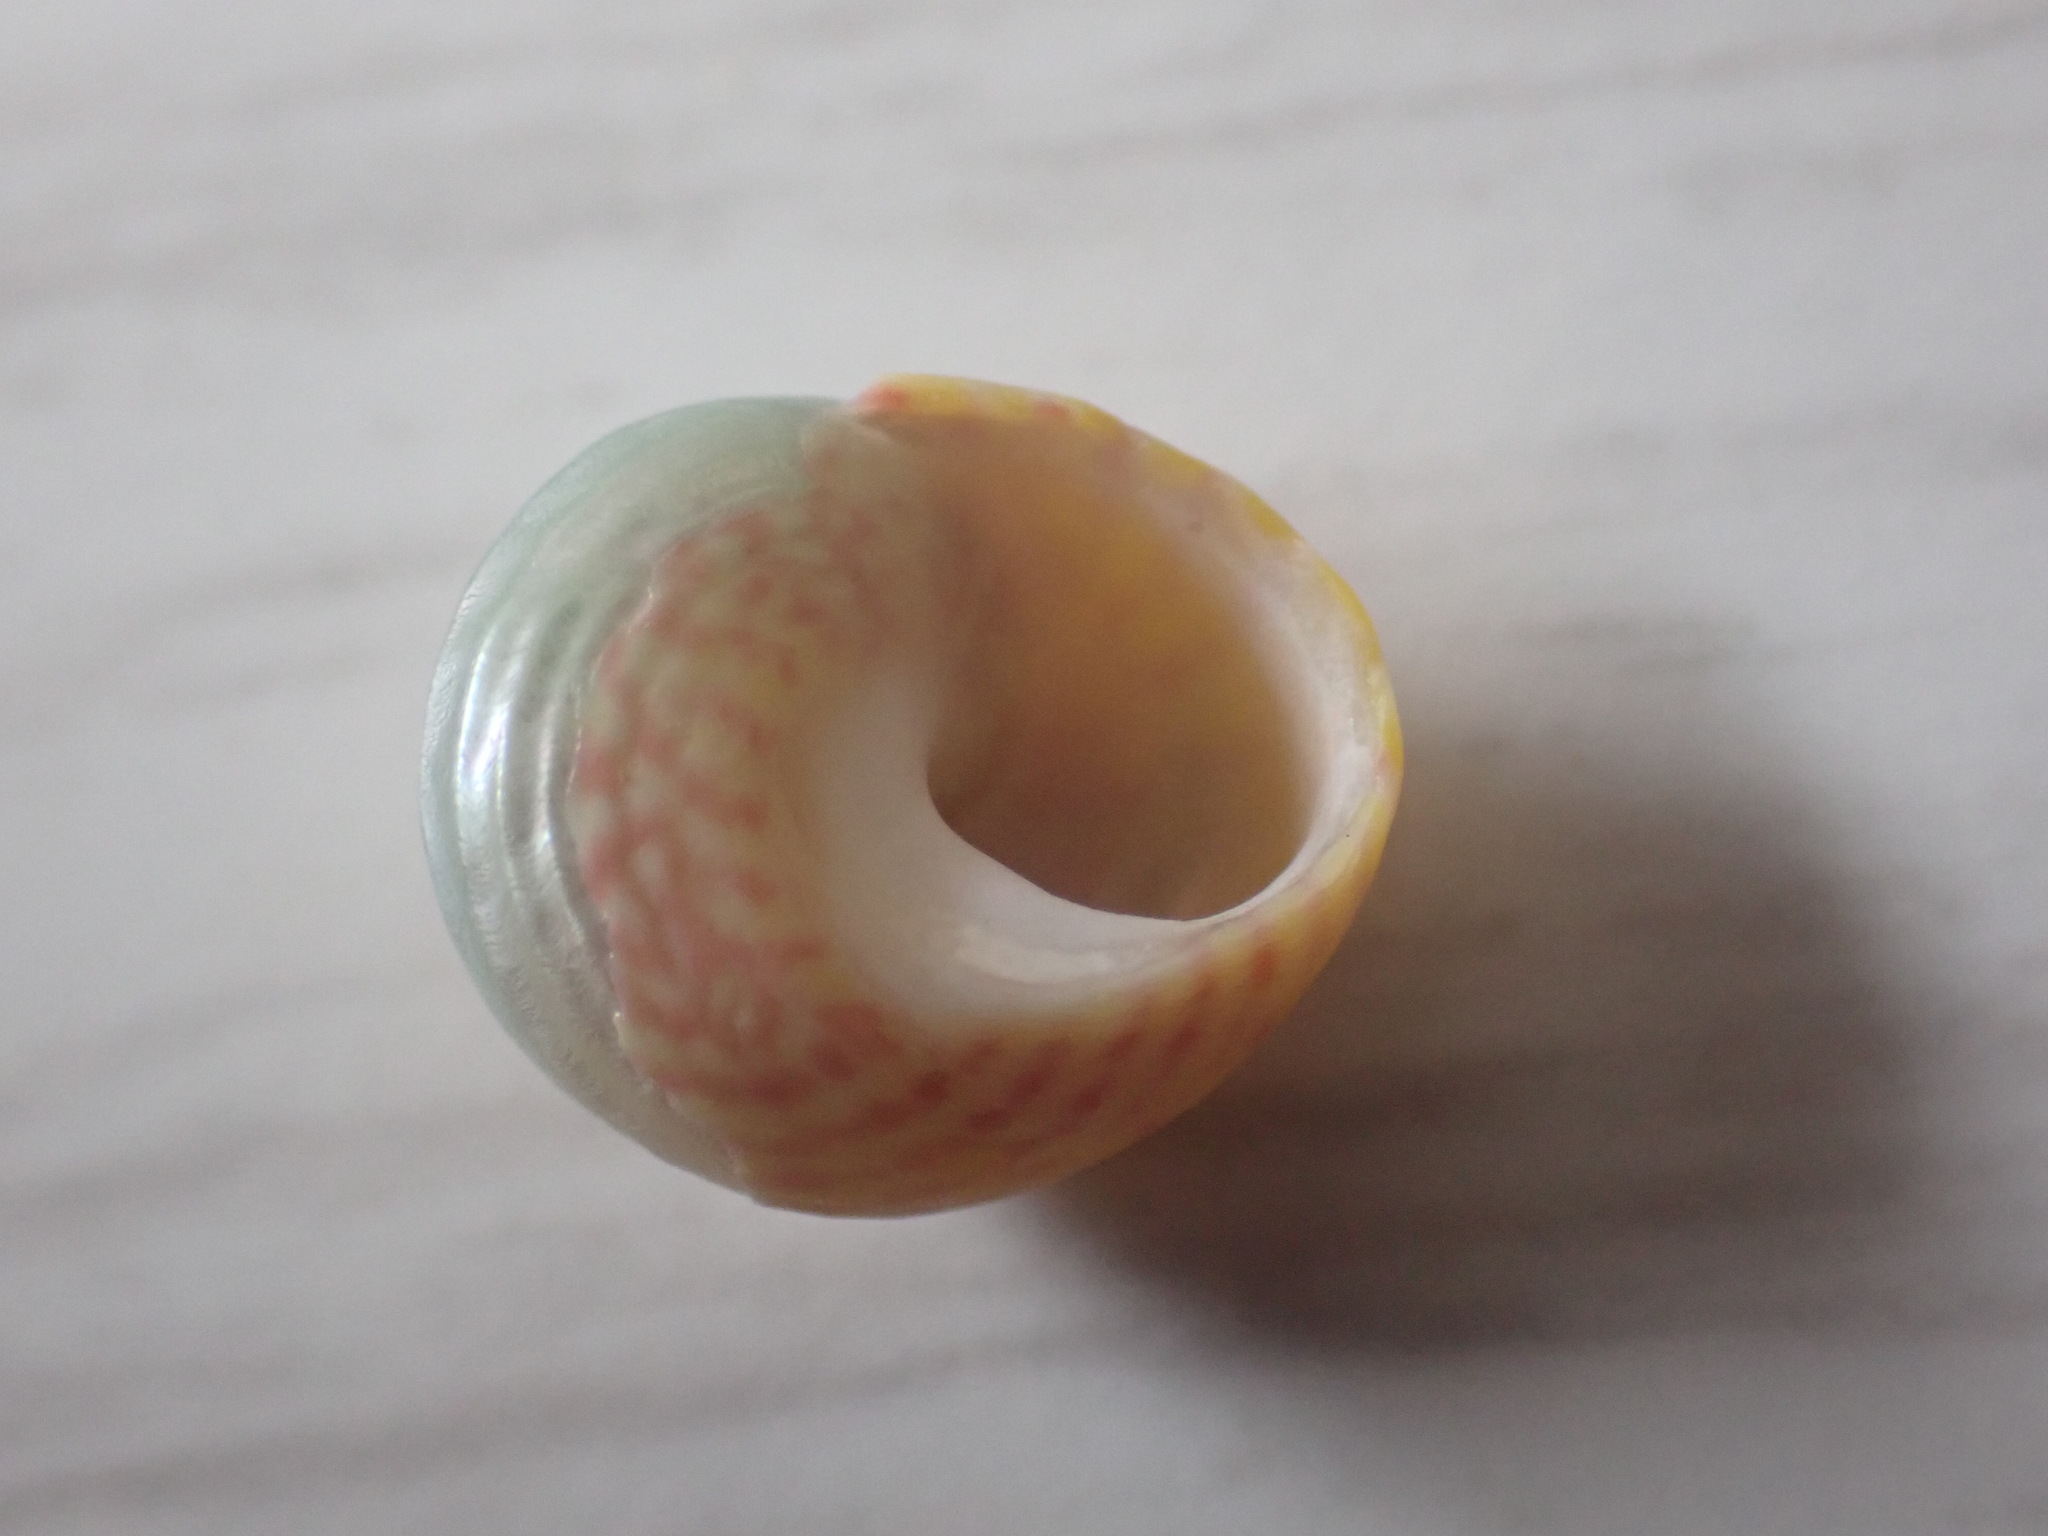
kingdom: Animalia
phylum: Mollusca
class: Gastropoda
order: Trochida
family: Trochidae
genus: Diloma
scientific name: Diloma subrostratum
